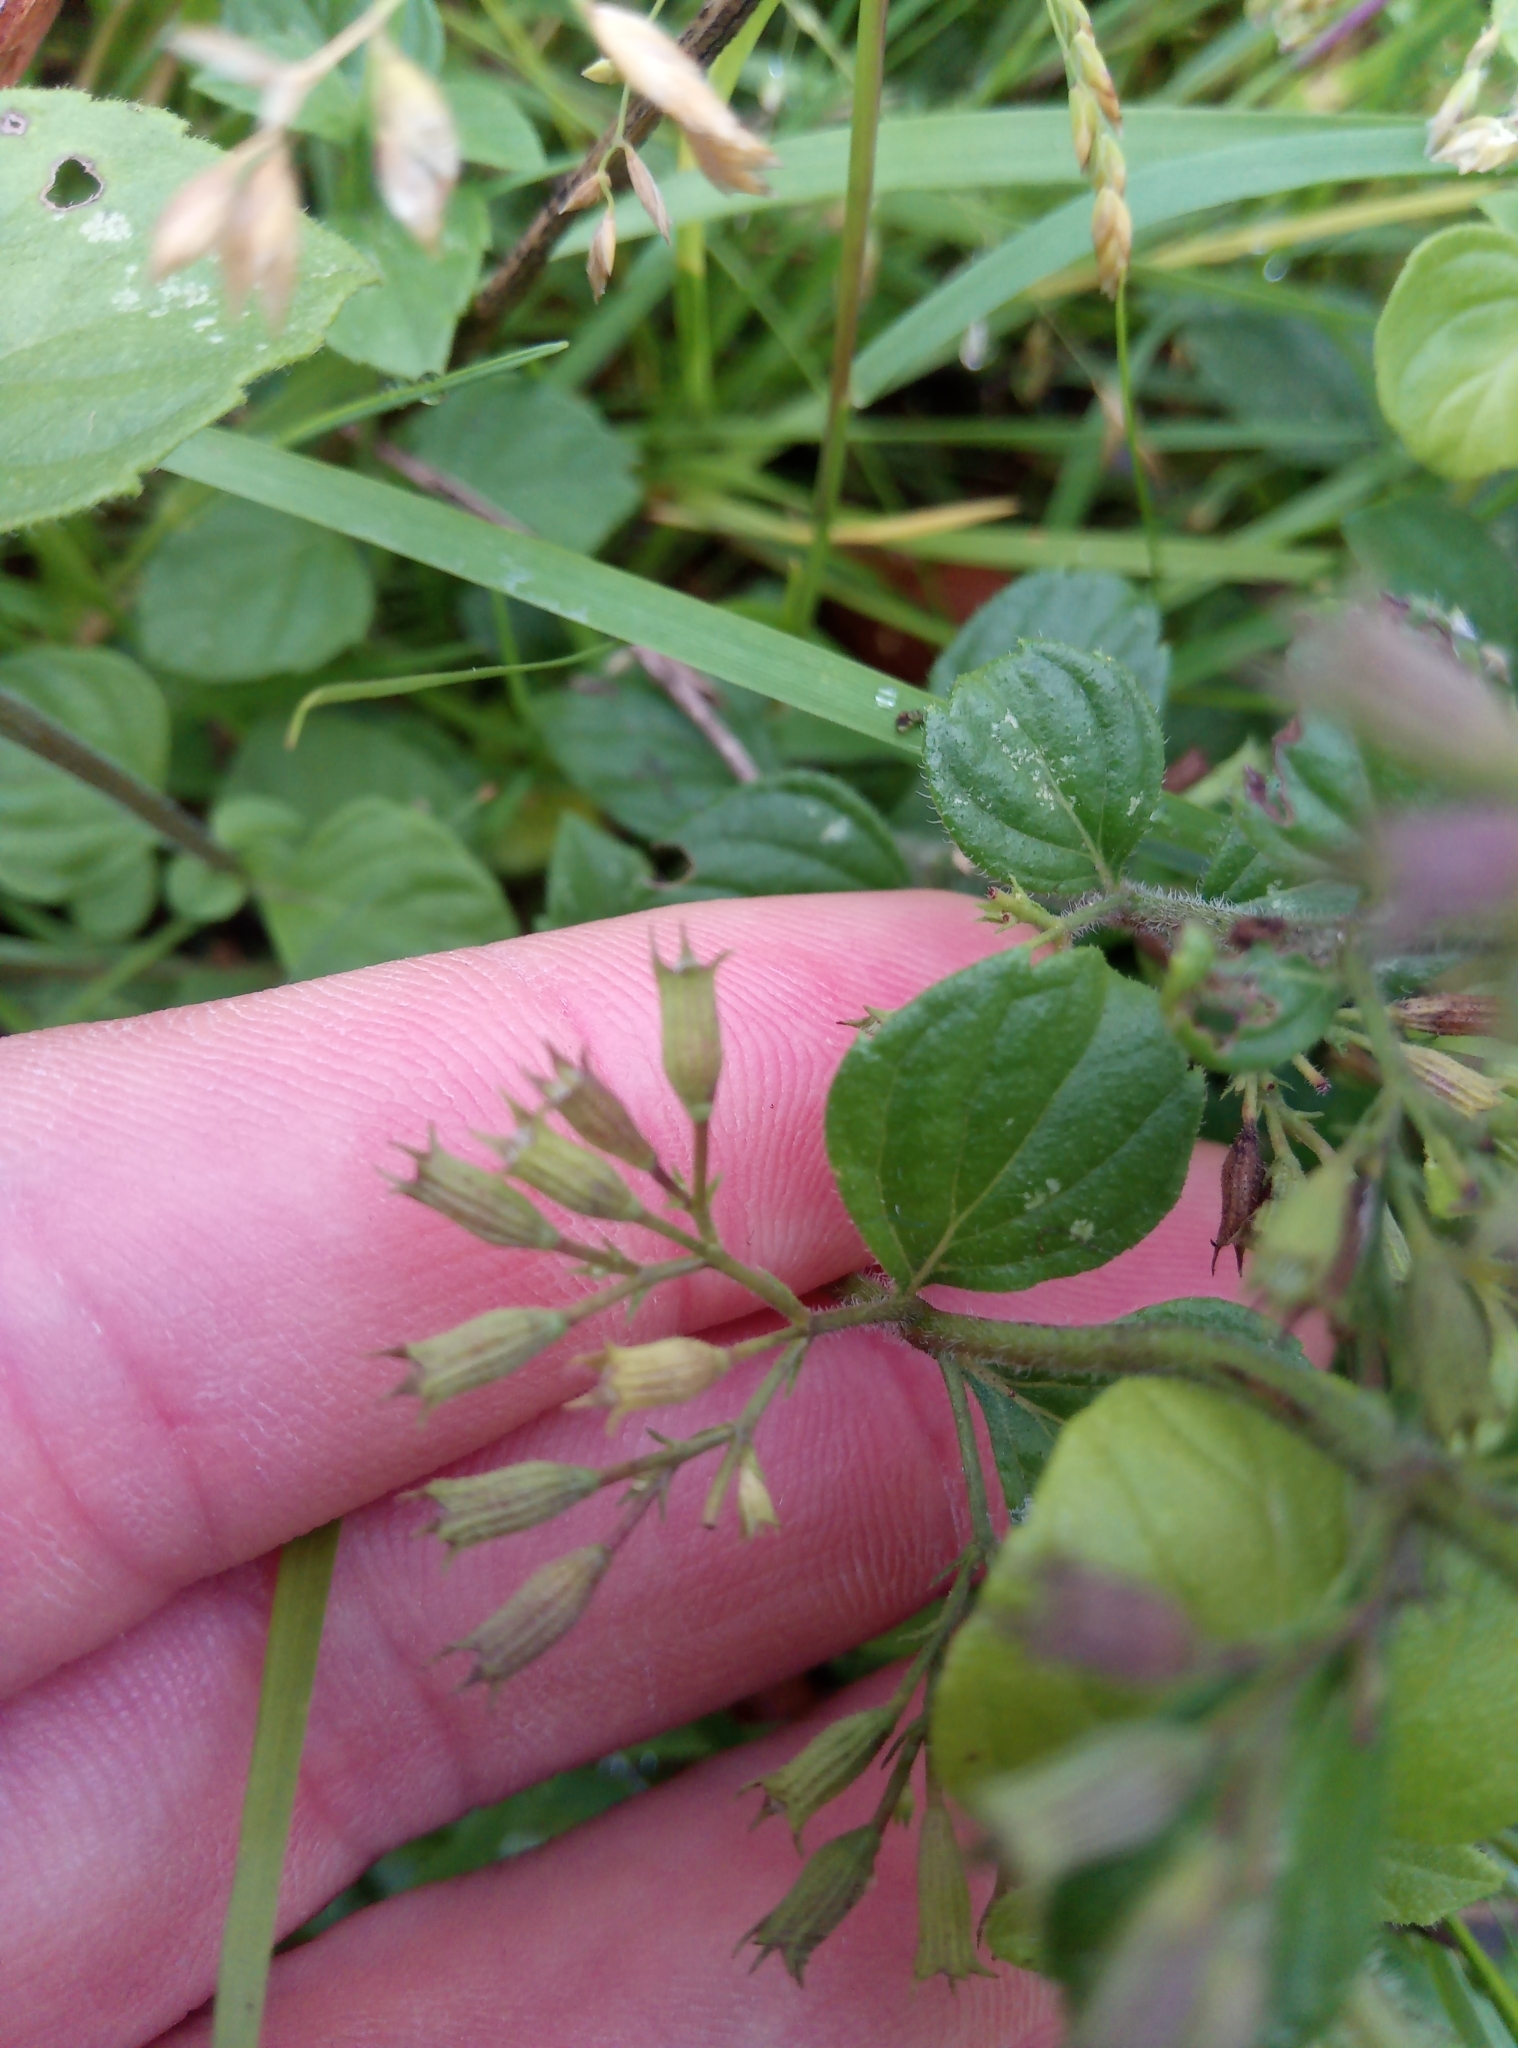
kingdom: Plantae
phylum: Tracheophyta
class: Magnoliopsida
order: Lamiales
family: Lamiaceae
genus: Clinopodium
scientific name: Clinopodium nepeta
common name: Lesser calamint
